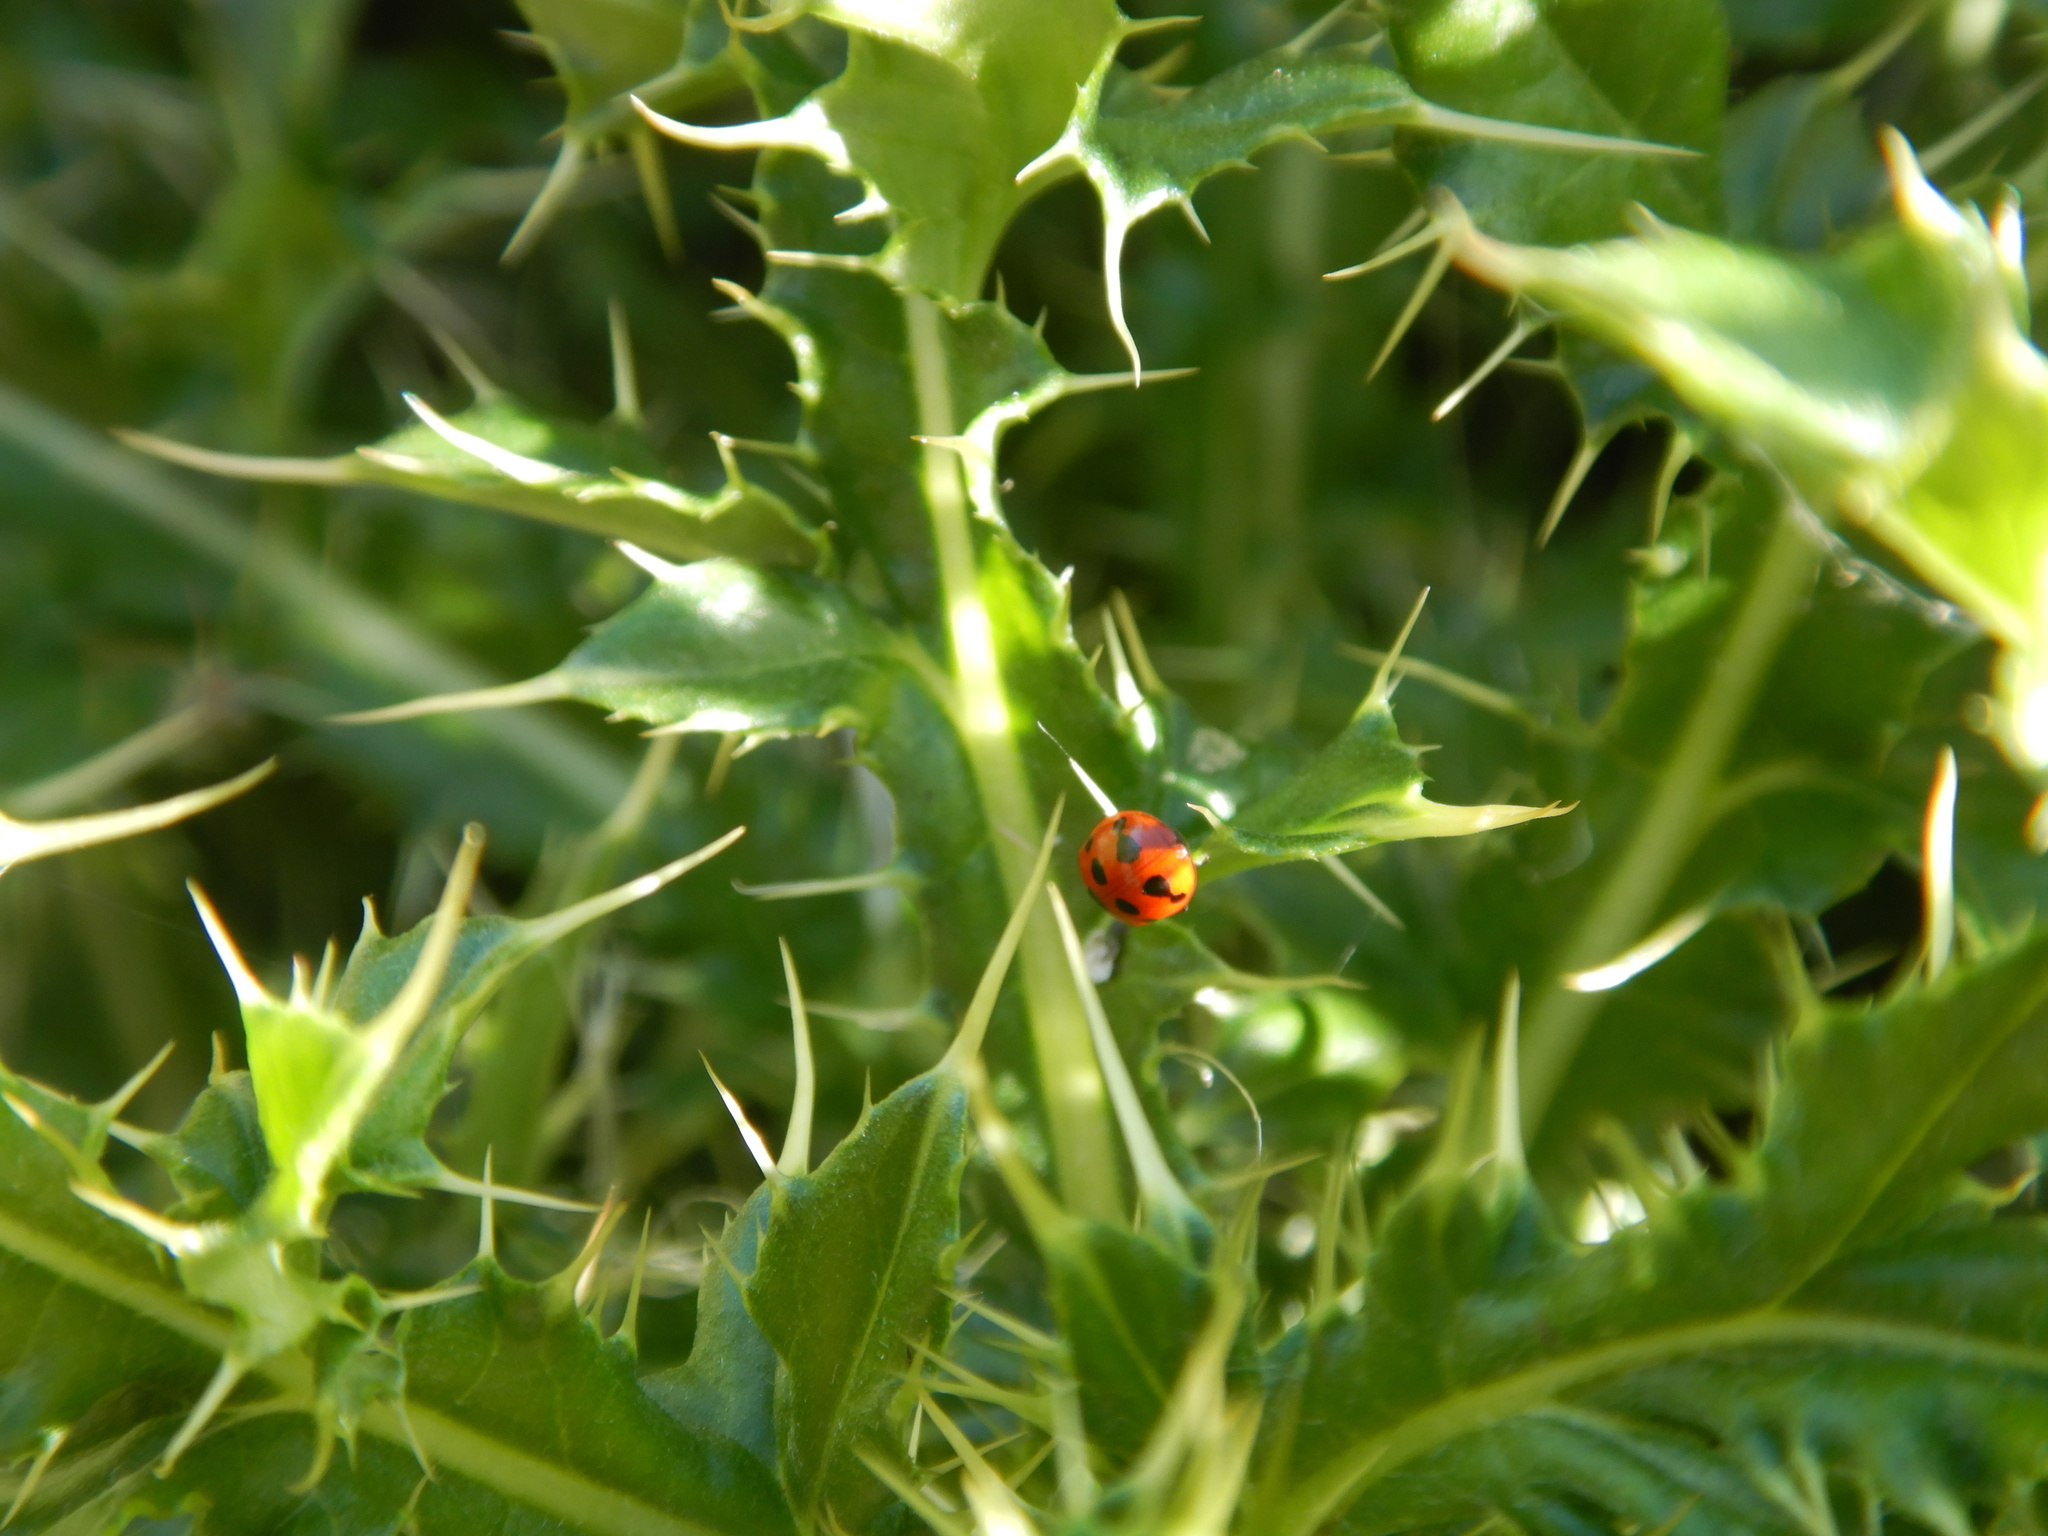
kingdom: Animalia
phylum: Arthropoda
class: Insecta
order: Coleoptera
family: Coccinellidae
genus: Coccinella
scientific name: Coccinella undecimpunctata
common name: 11-spot ladybird
